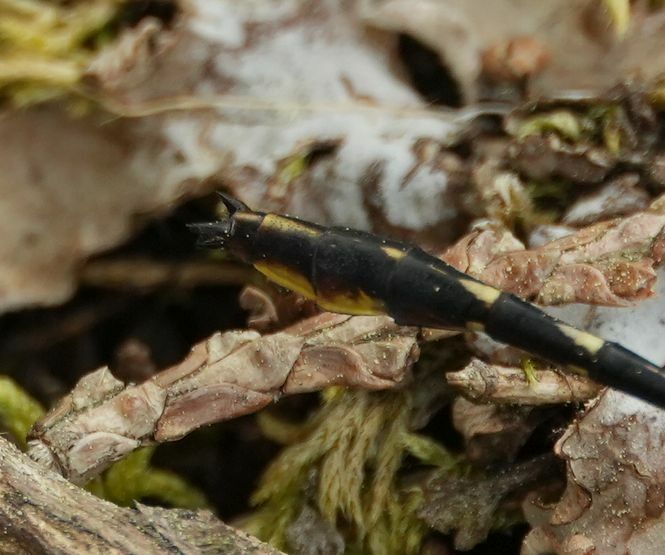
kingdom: Animalia
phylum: Arthropoda
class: Insecta
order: Odonata
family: Gomphidae
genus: Phanogomphus
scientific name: Phanogomphus exilis
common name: Lancet clubtail
